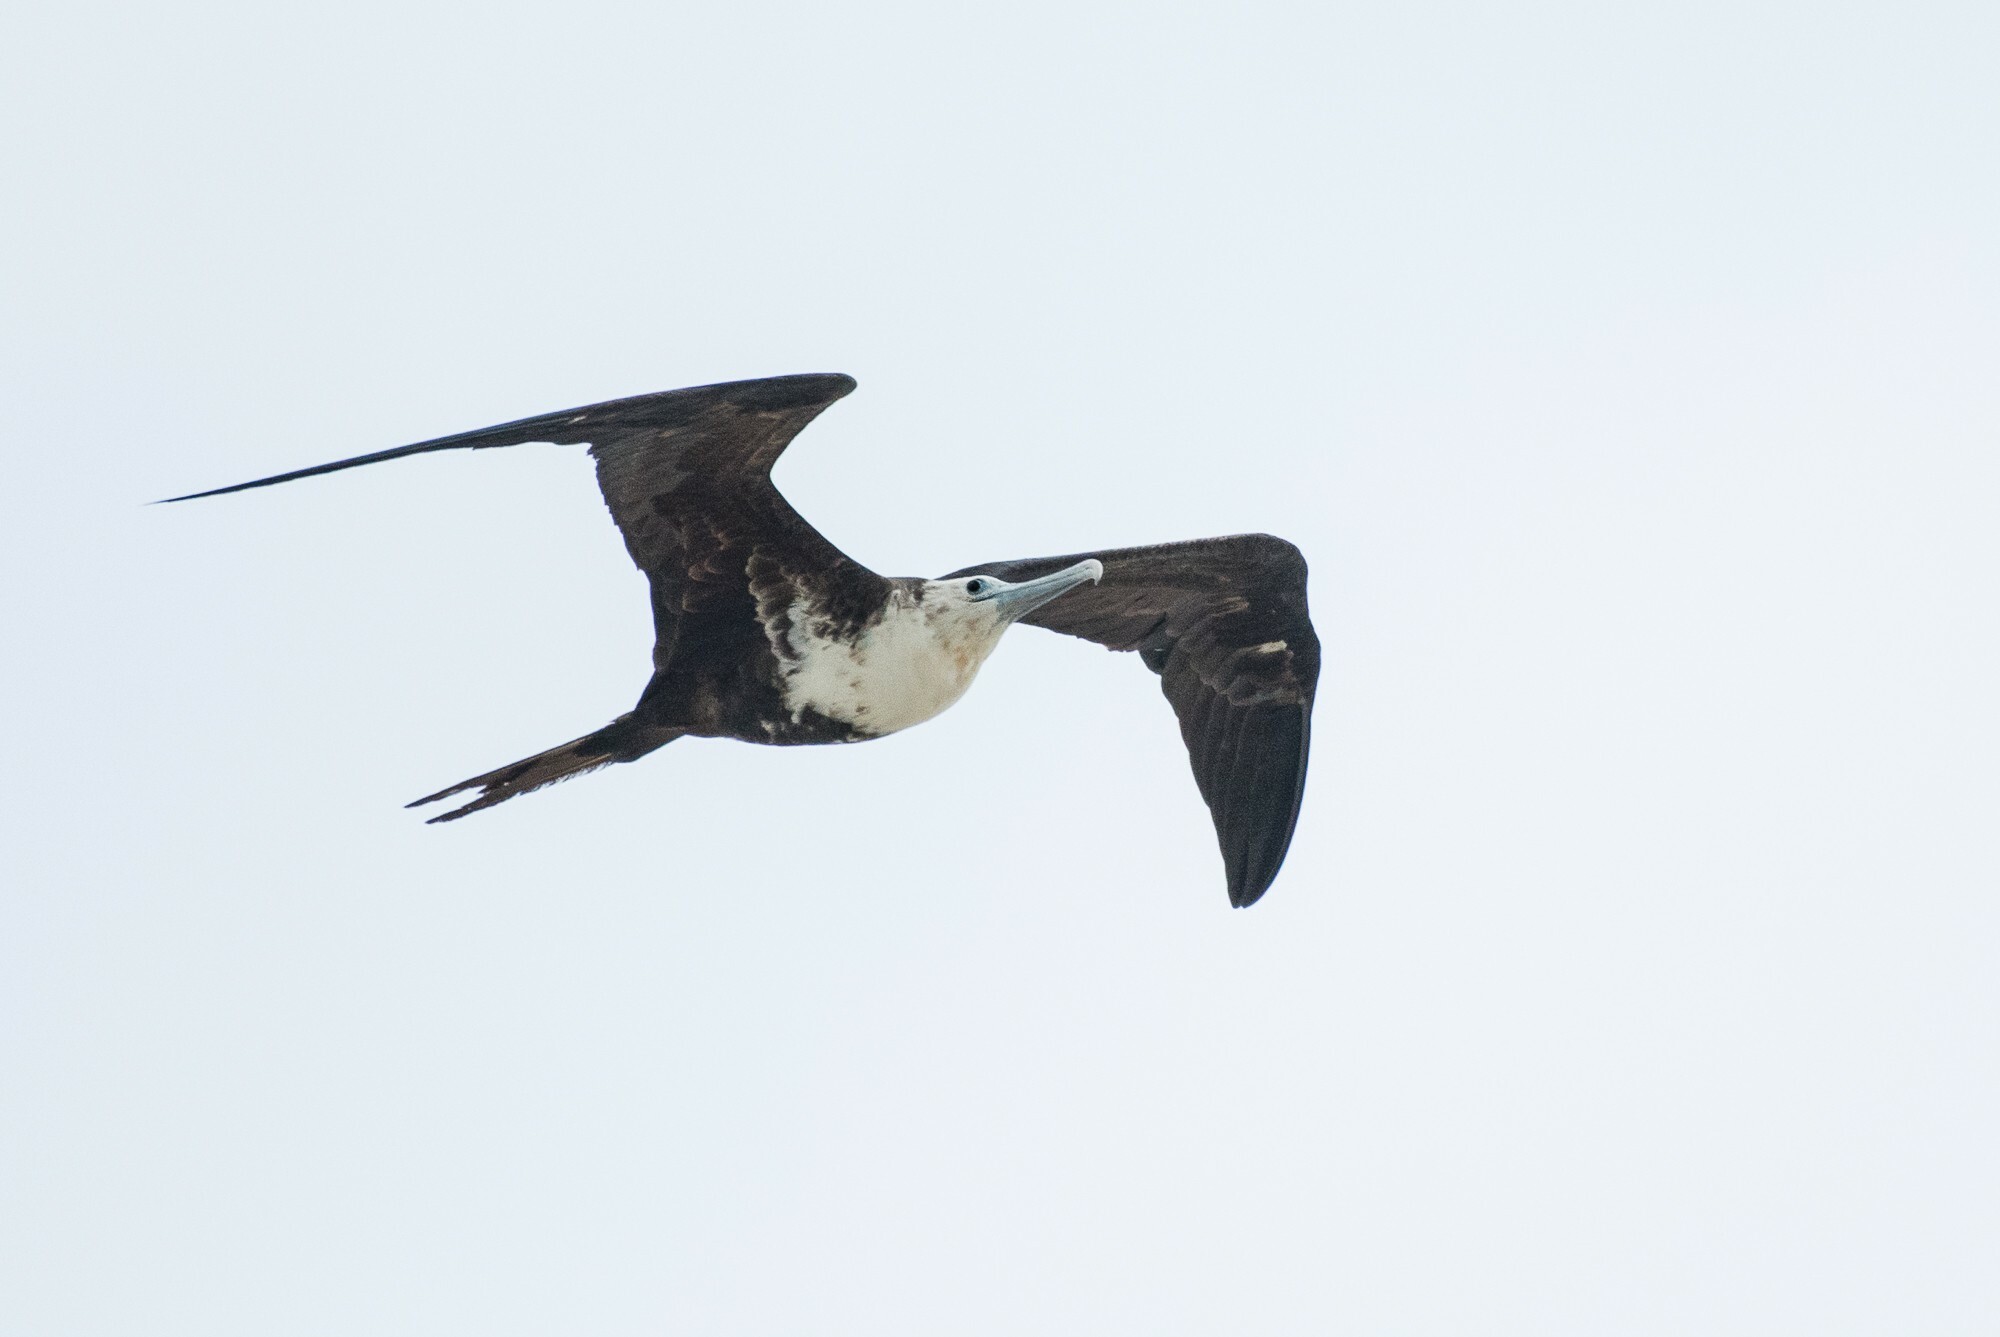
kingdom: Animalia
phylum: Chordata
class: Aves
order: Suliformes
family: Fregatidae
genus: Fregata
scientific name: Fregata magnificens
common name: Magnificent frigatebird
